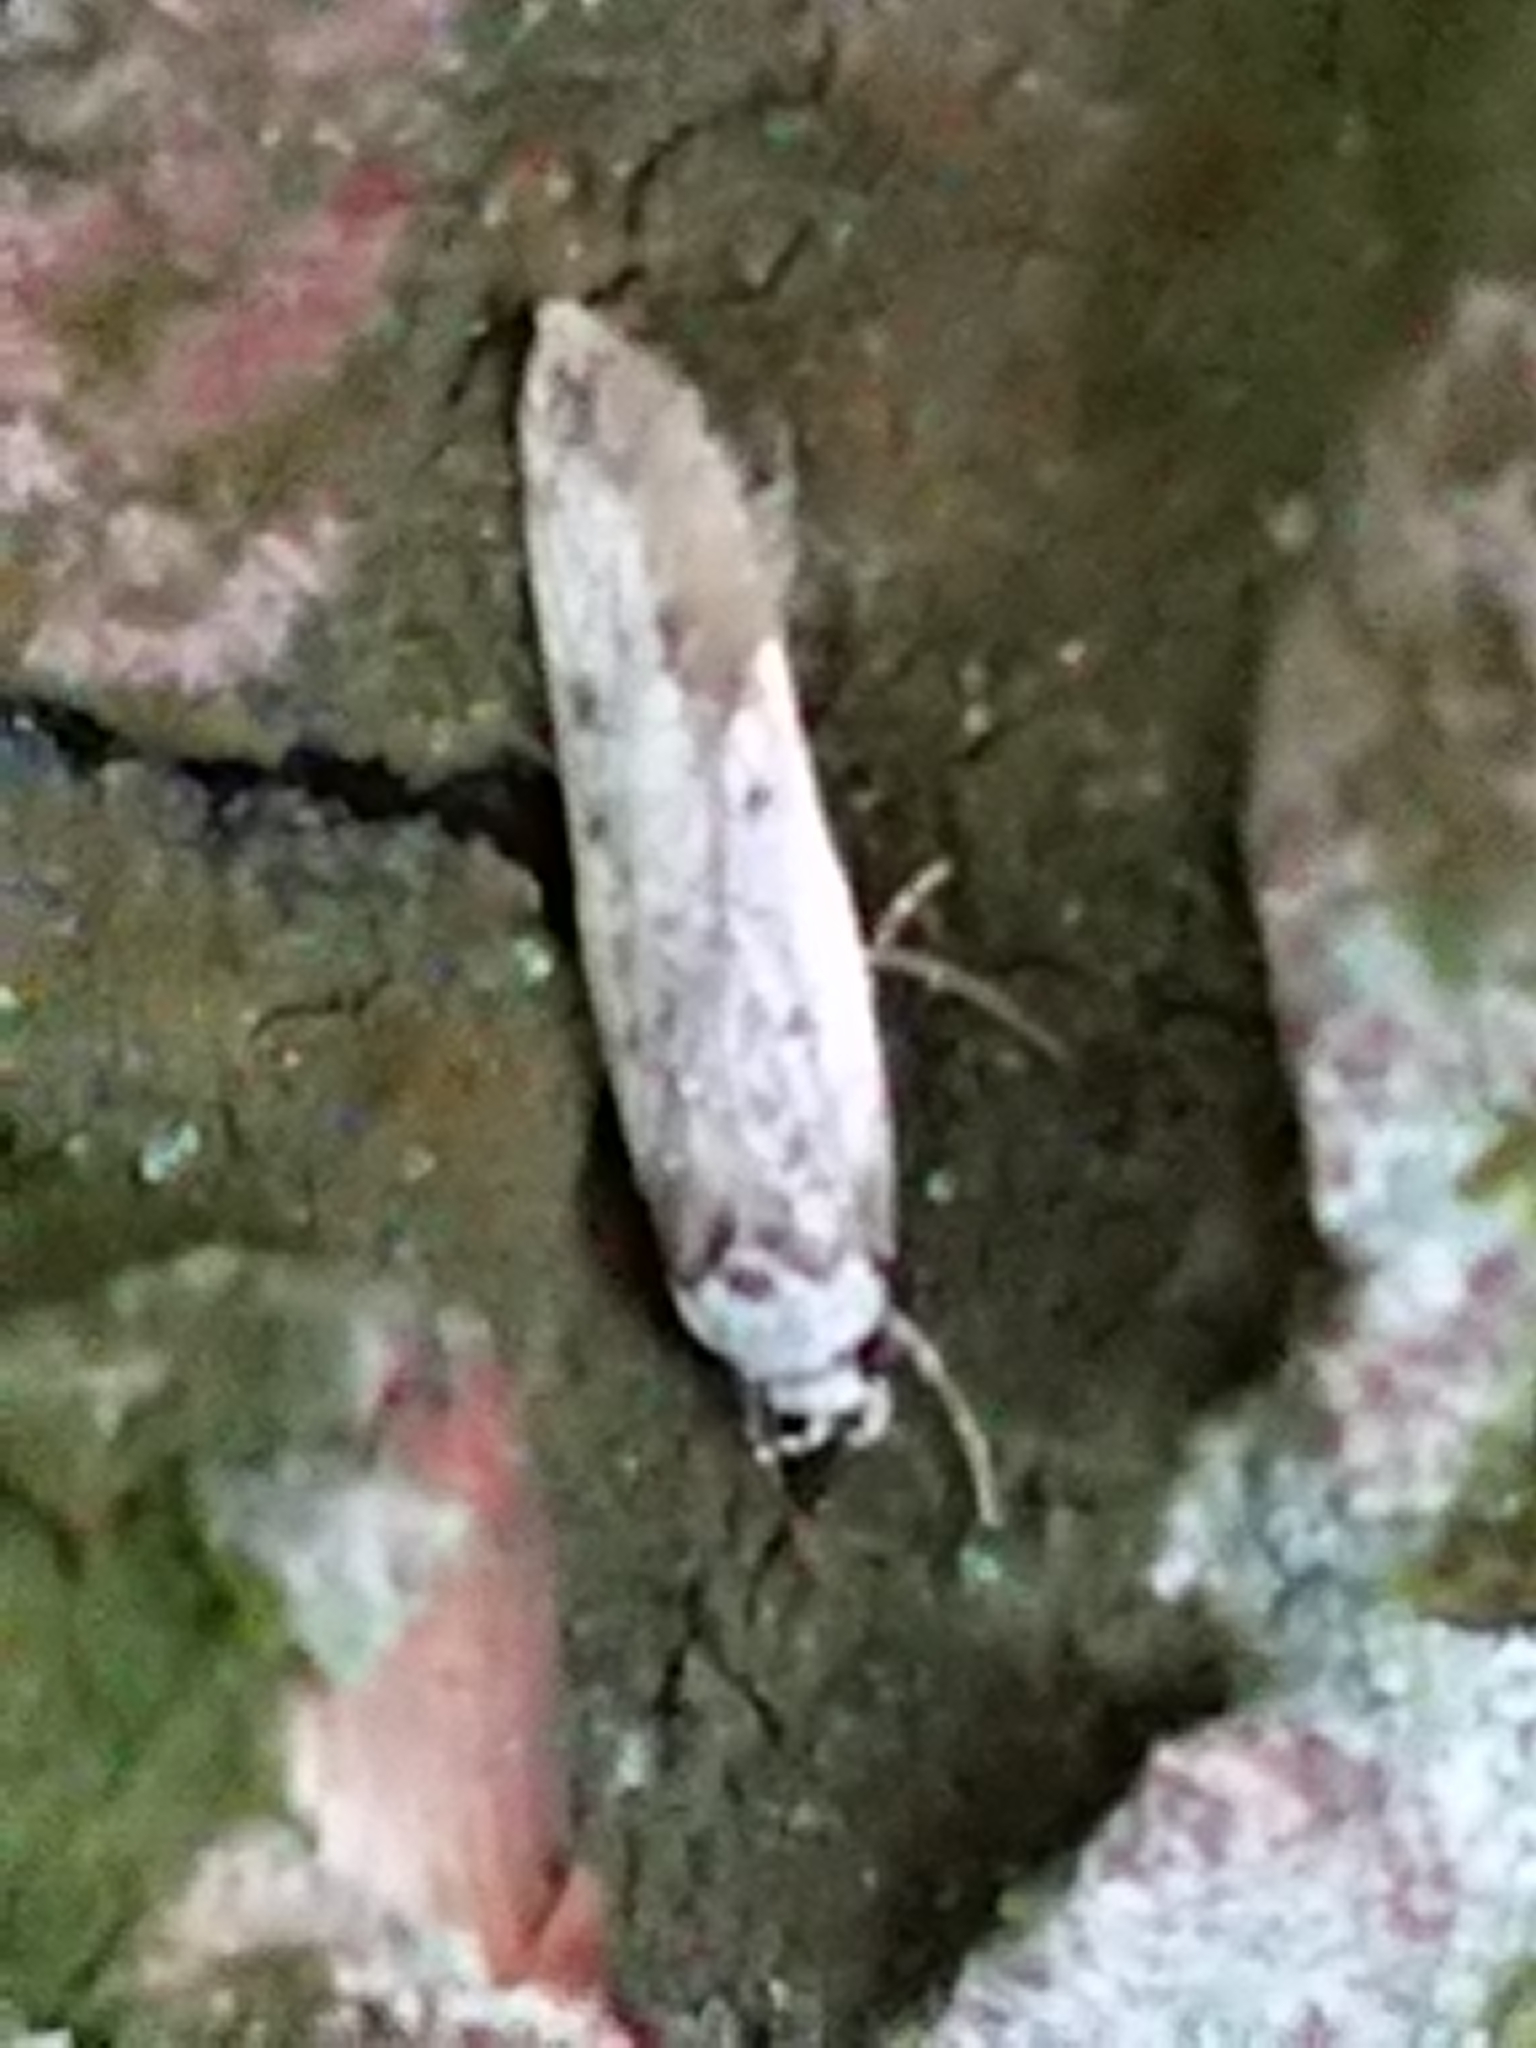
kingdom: Animalia
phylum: Arthropoda
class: Insecta
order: Lepidoptera
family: Oecophoridae
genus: Endrosis
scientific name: Endrosis sarcitrella
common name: White-shouldered house moth
